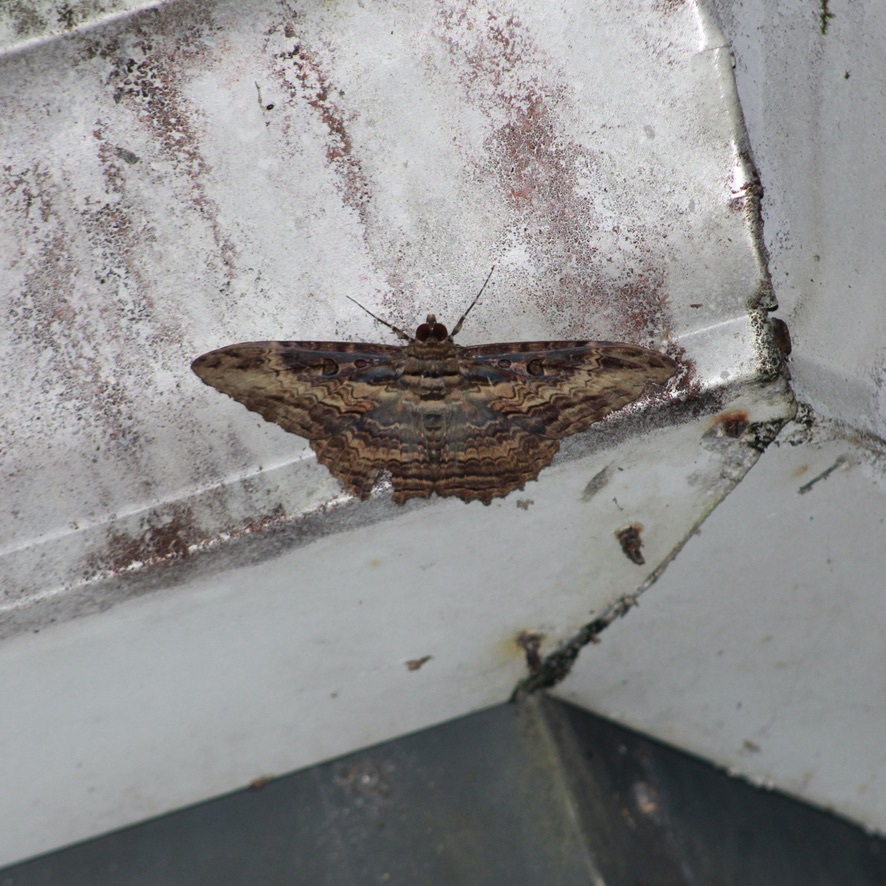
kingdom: Animalia
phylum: Arthropoda
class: Insecta
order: Lepidoptera
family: Erebidae
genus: Feigeria
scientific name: Feigeria buteo
